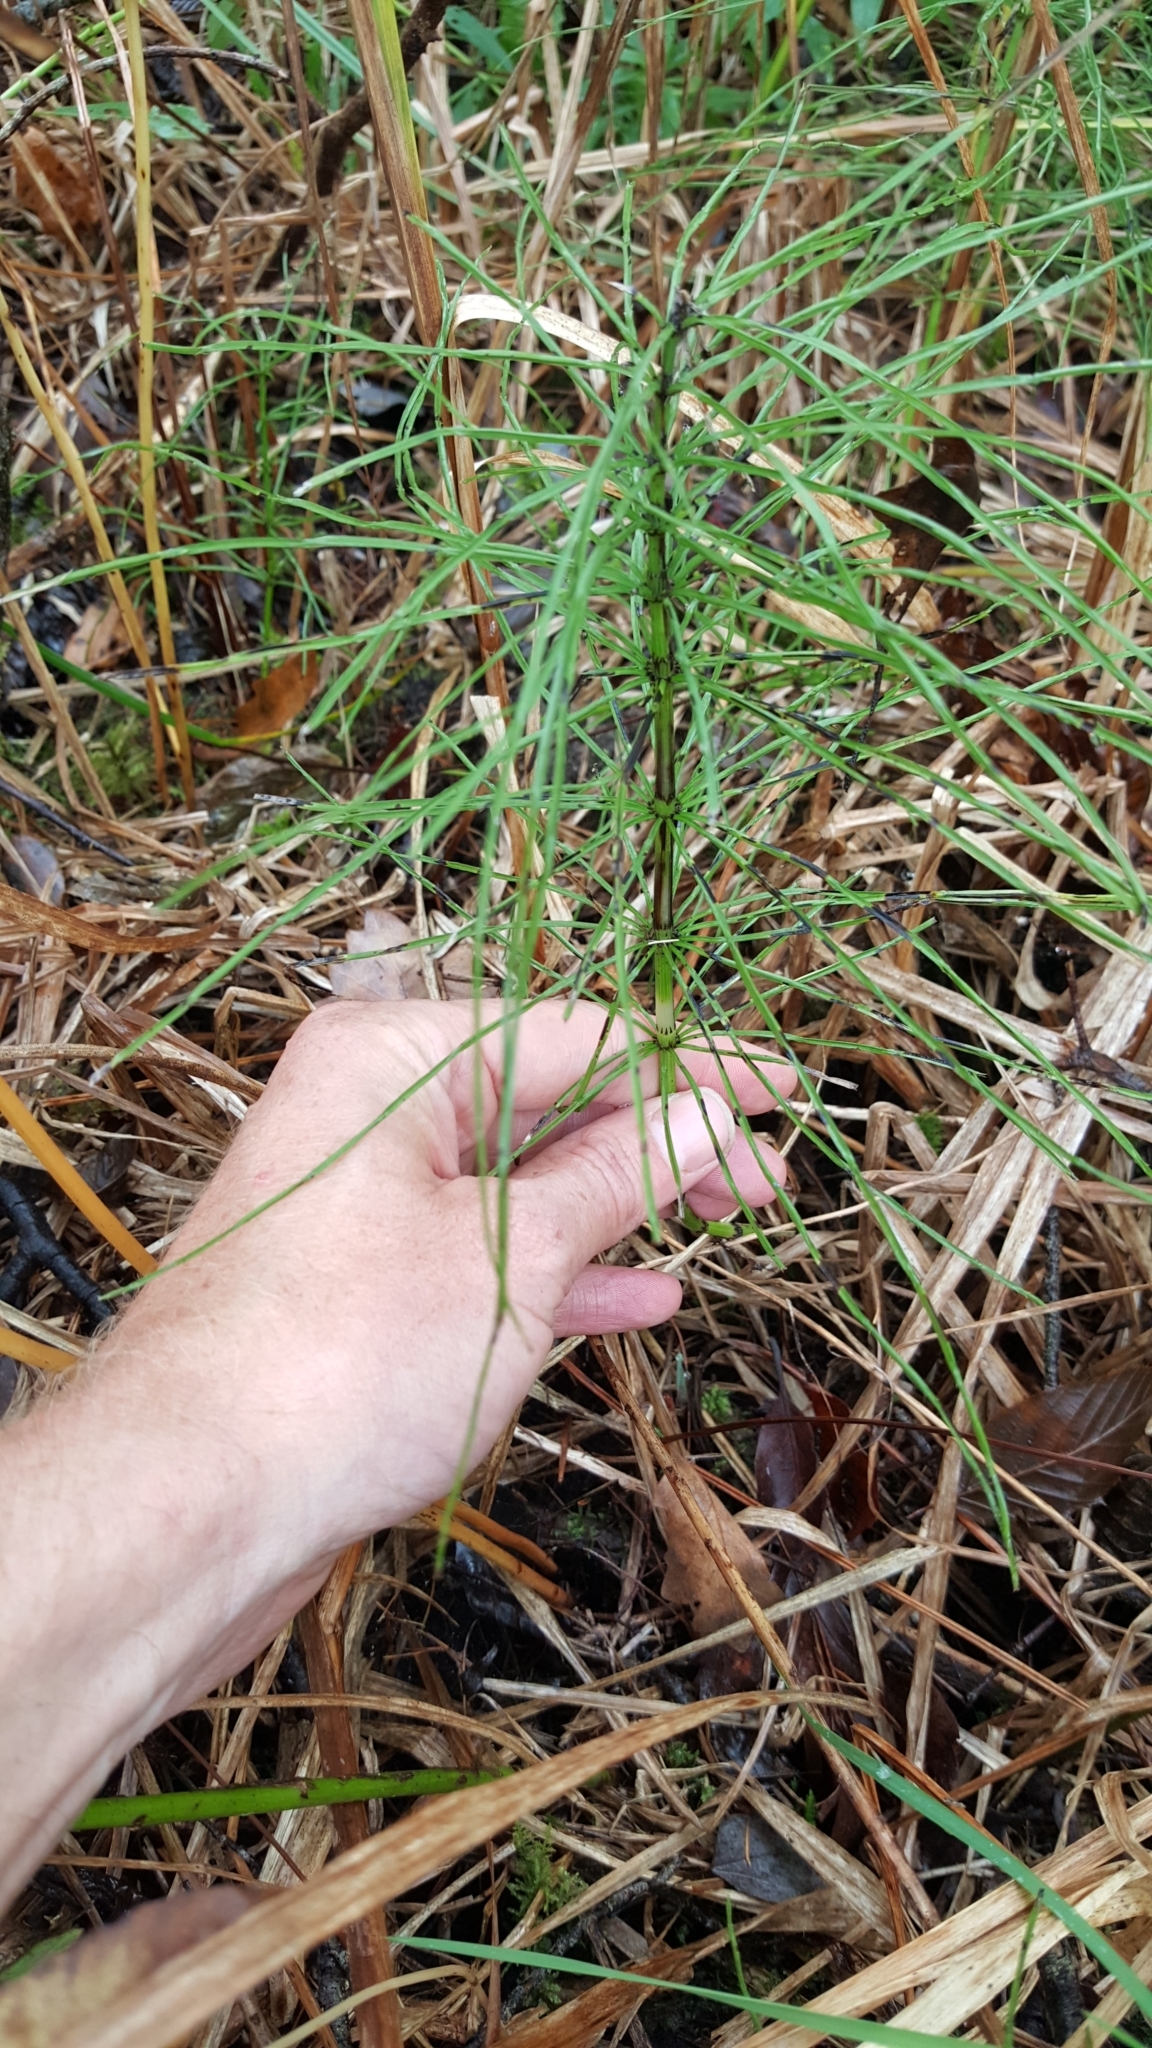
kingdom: Plantae
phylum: Tracheophyta
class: Polypodiopsida
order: Equisetales
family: Equisetaceae
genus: Equisetum
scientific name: Equisetum arvense
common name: Field horsetail
